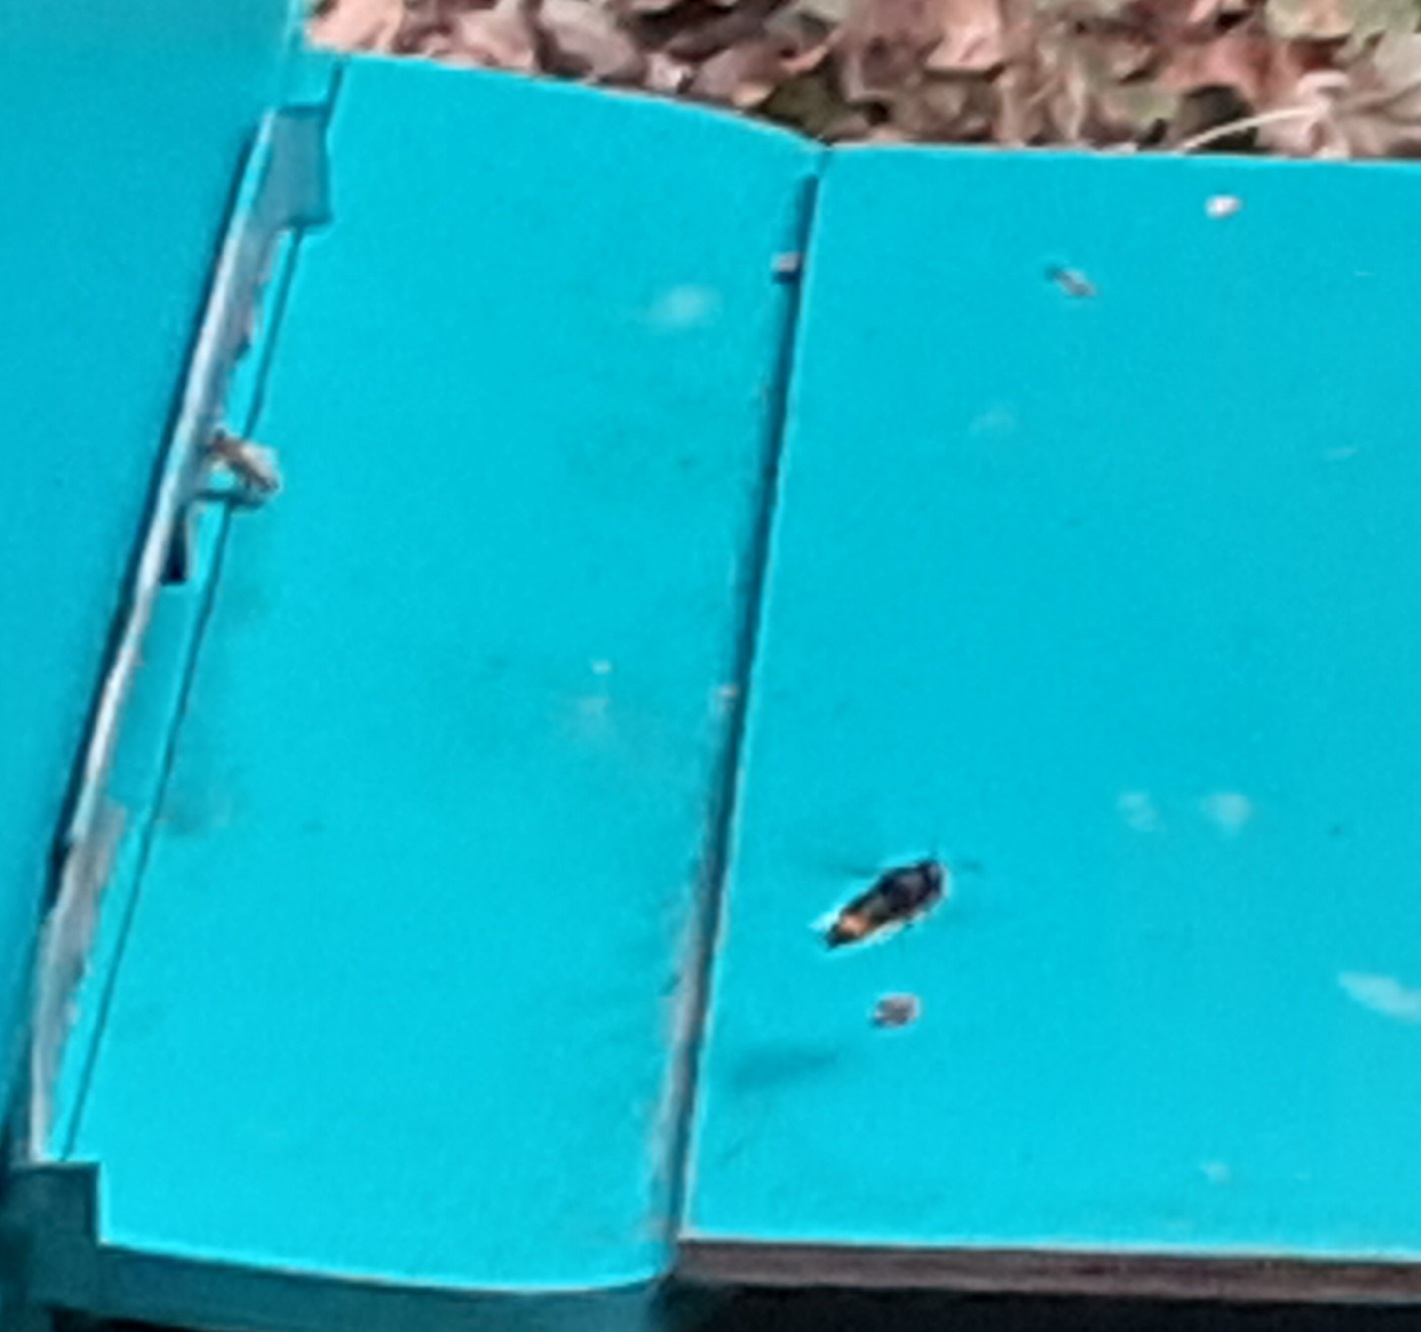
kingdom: Animalia
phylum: Arthropoda
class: Insecta
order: Hymenoptera
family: Vespidae
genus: Vespa
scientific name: Vespa velutina
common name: Asian hornet
